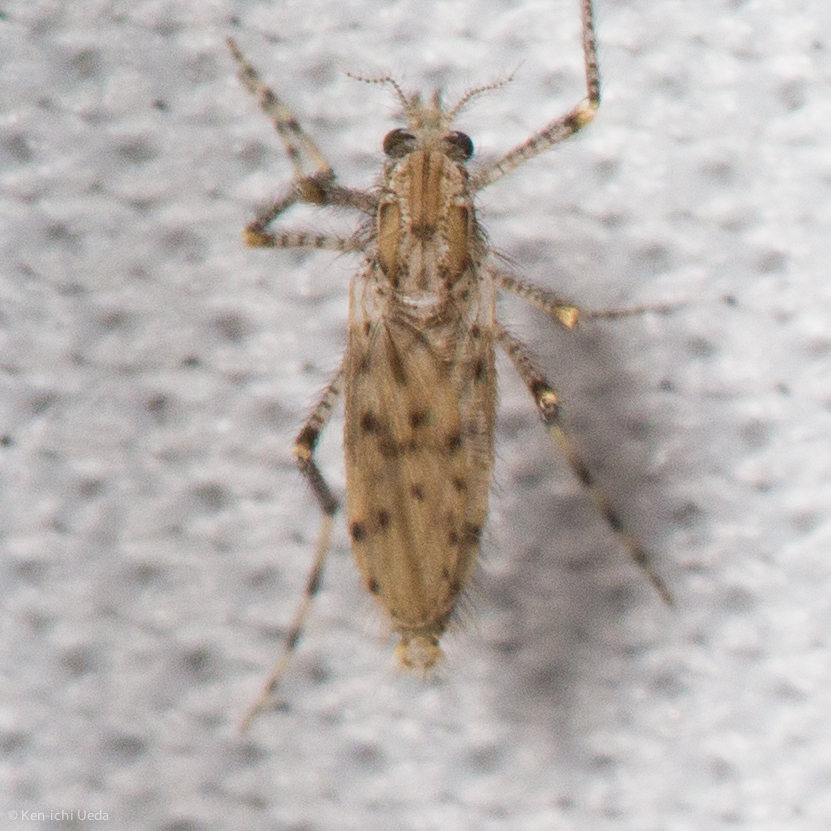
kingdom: Animalia
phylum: Arthropoda
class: Insecta
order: Diptera
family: Chaoboridae
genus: Chaoborus
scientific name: Chaoborus punctipennis
